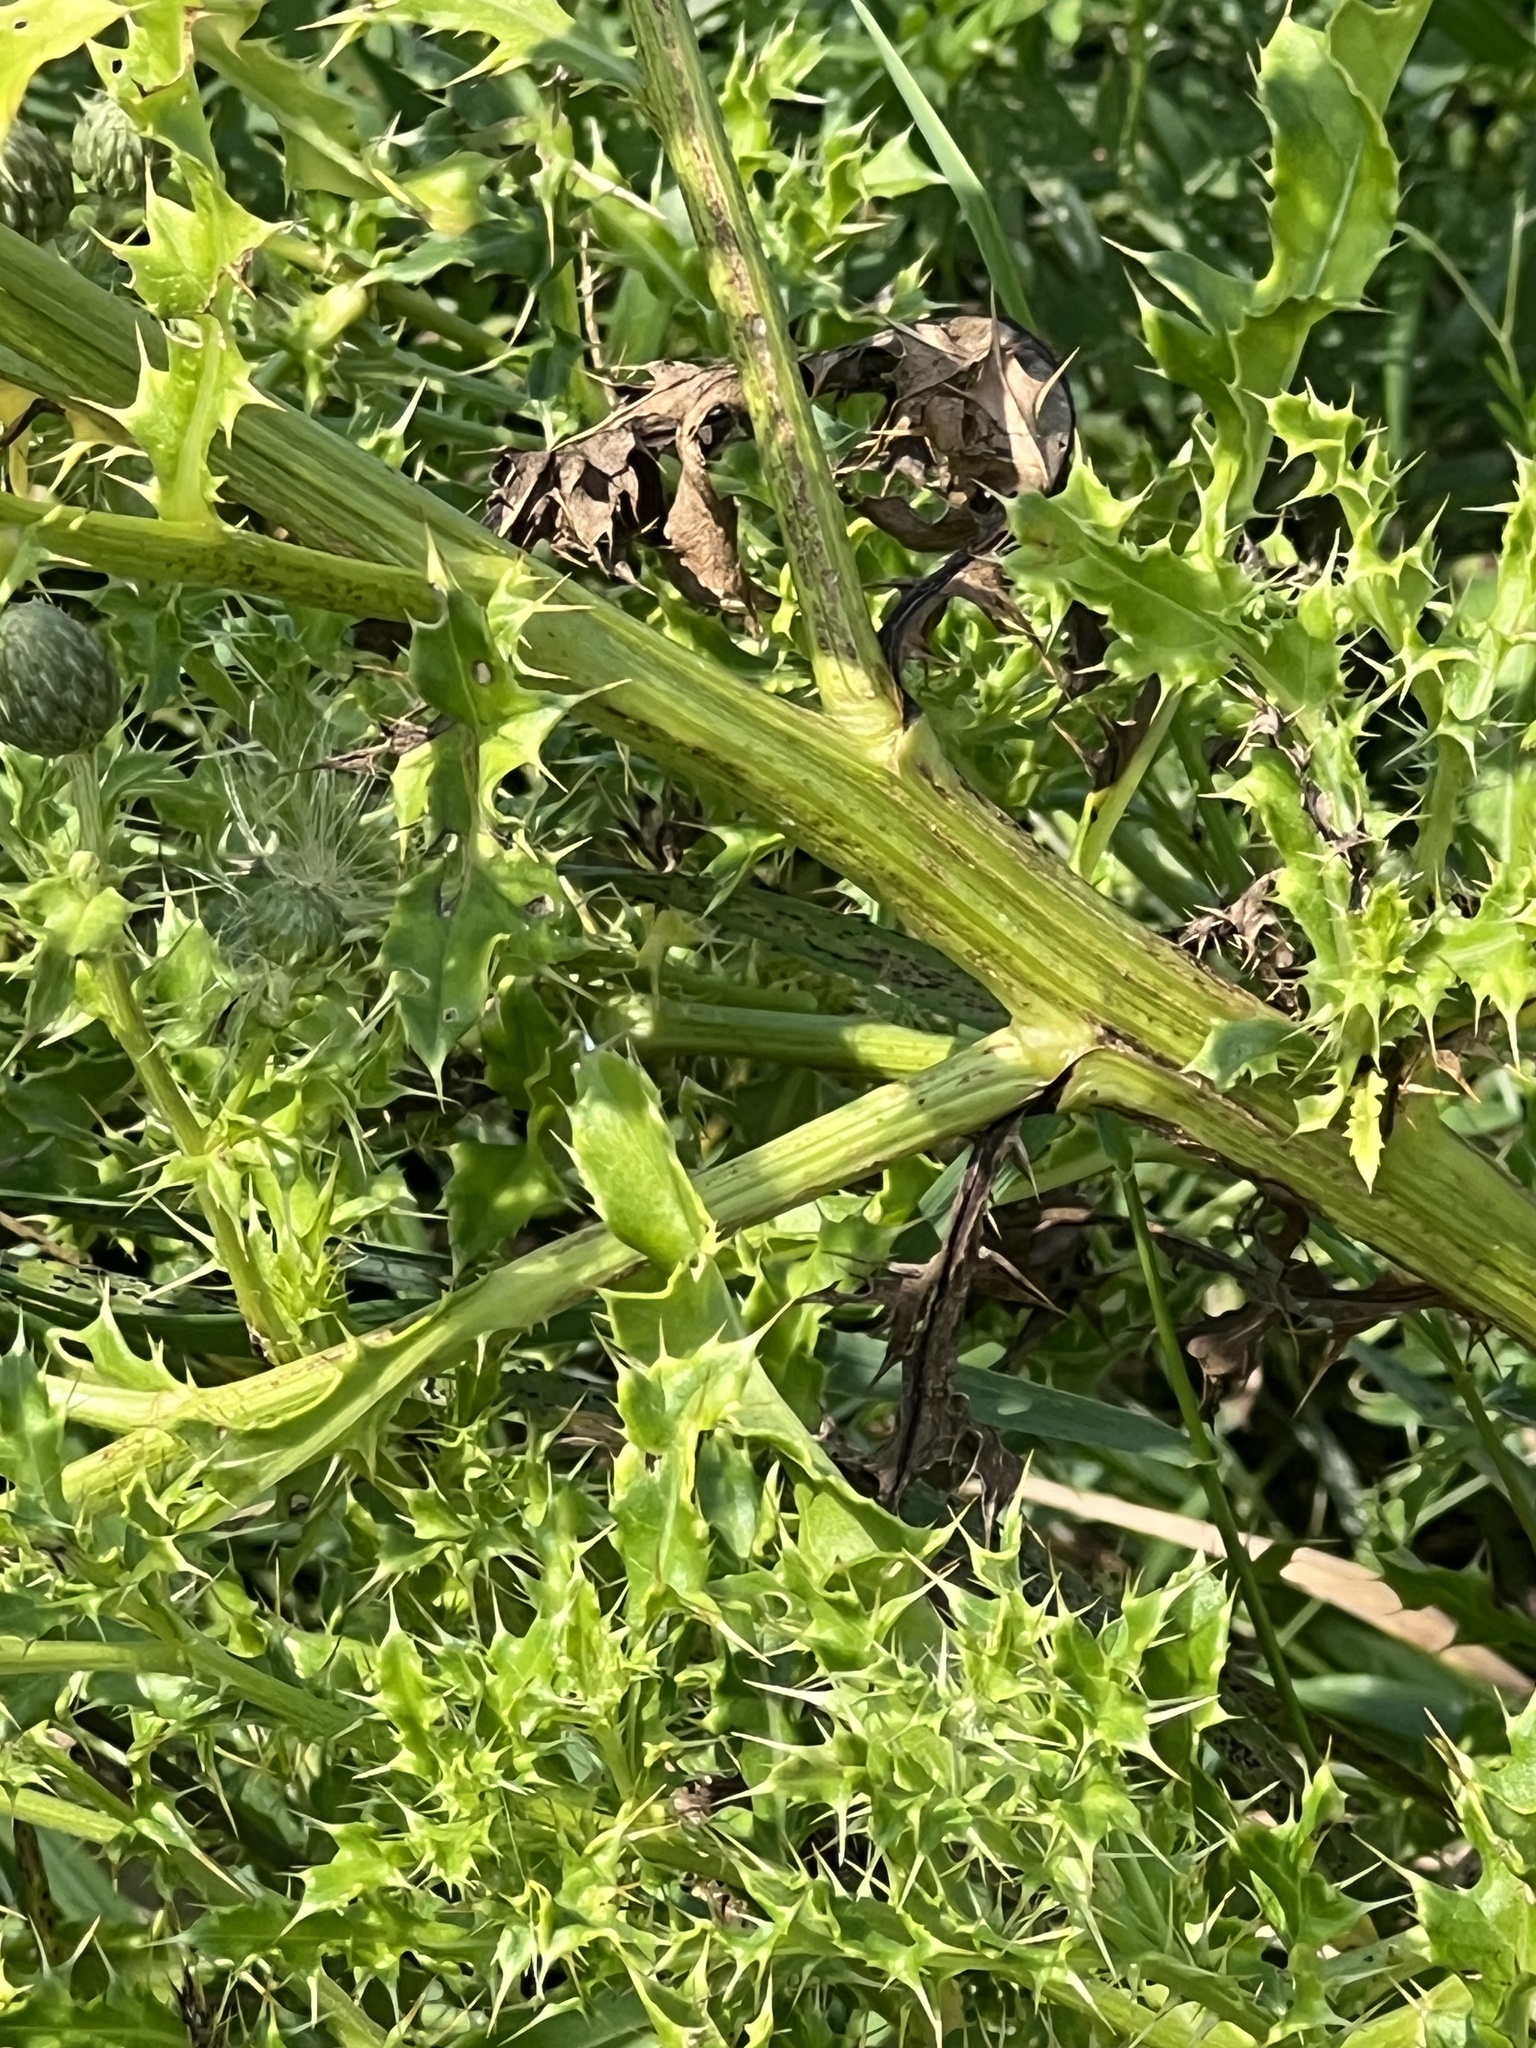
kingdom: Plantae
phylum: Tracheophyta
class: Magnoliopsida
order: Asterales
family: Asteraceae
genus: Cirsium
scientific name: Cirsium arvense
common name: Creeping thistle
